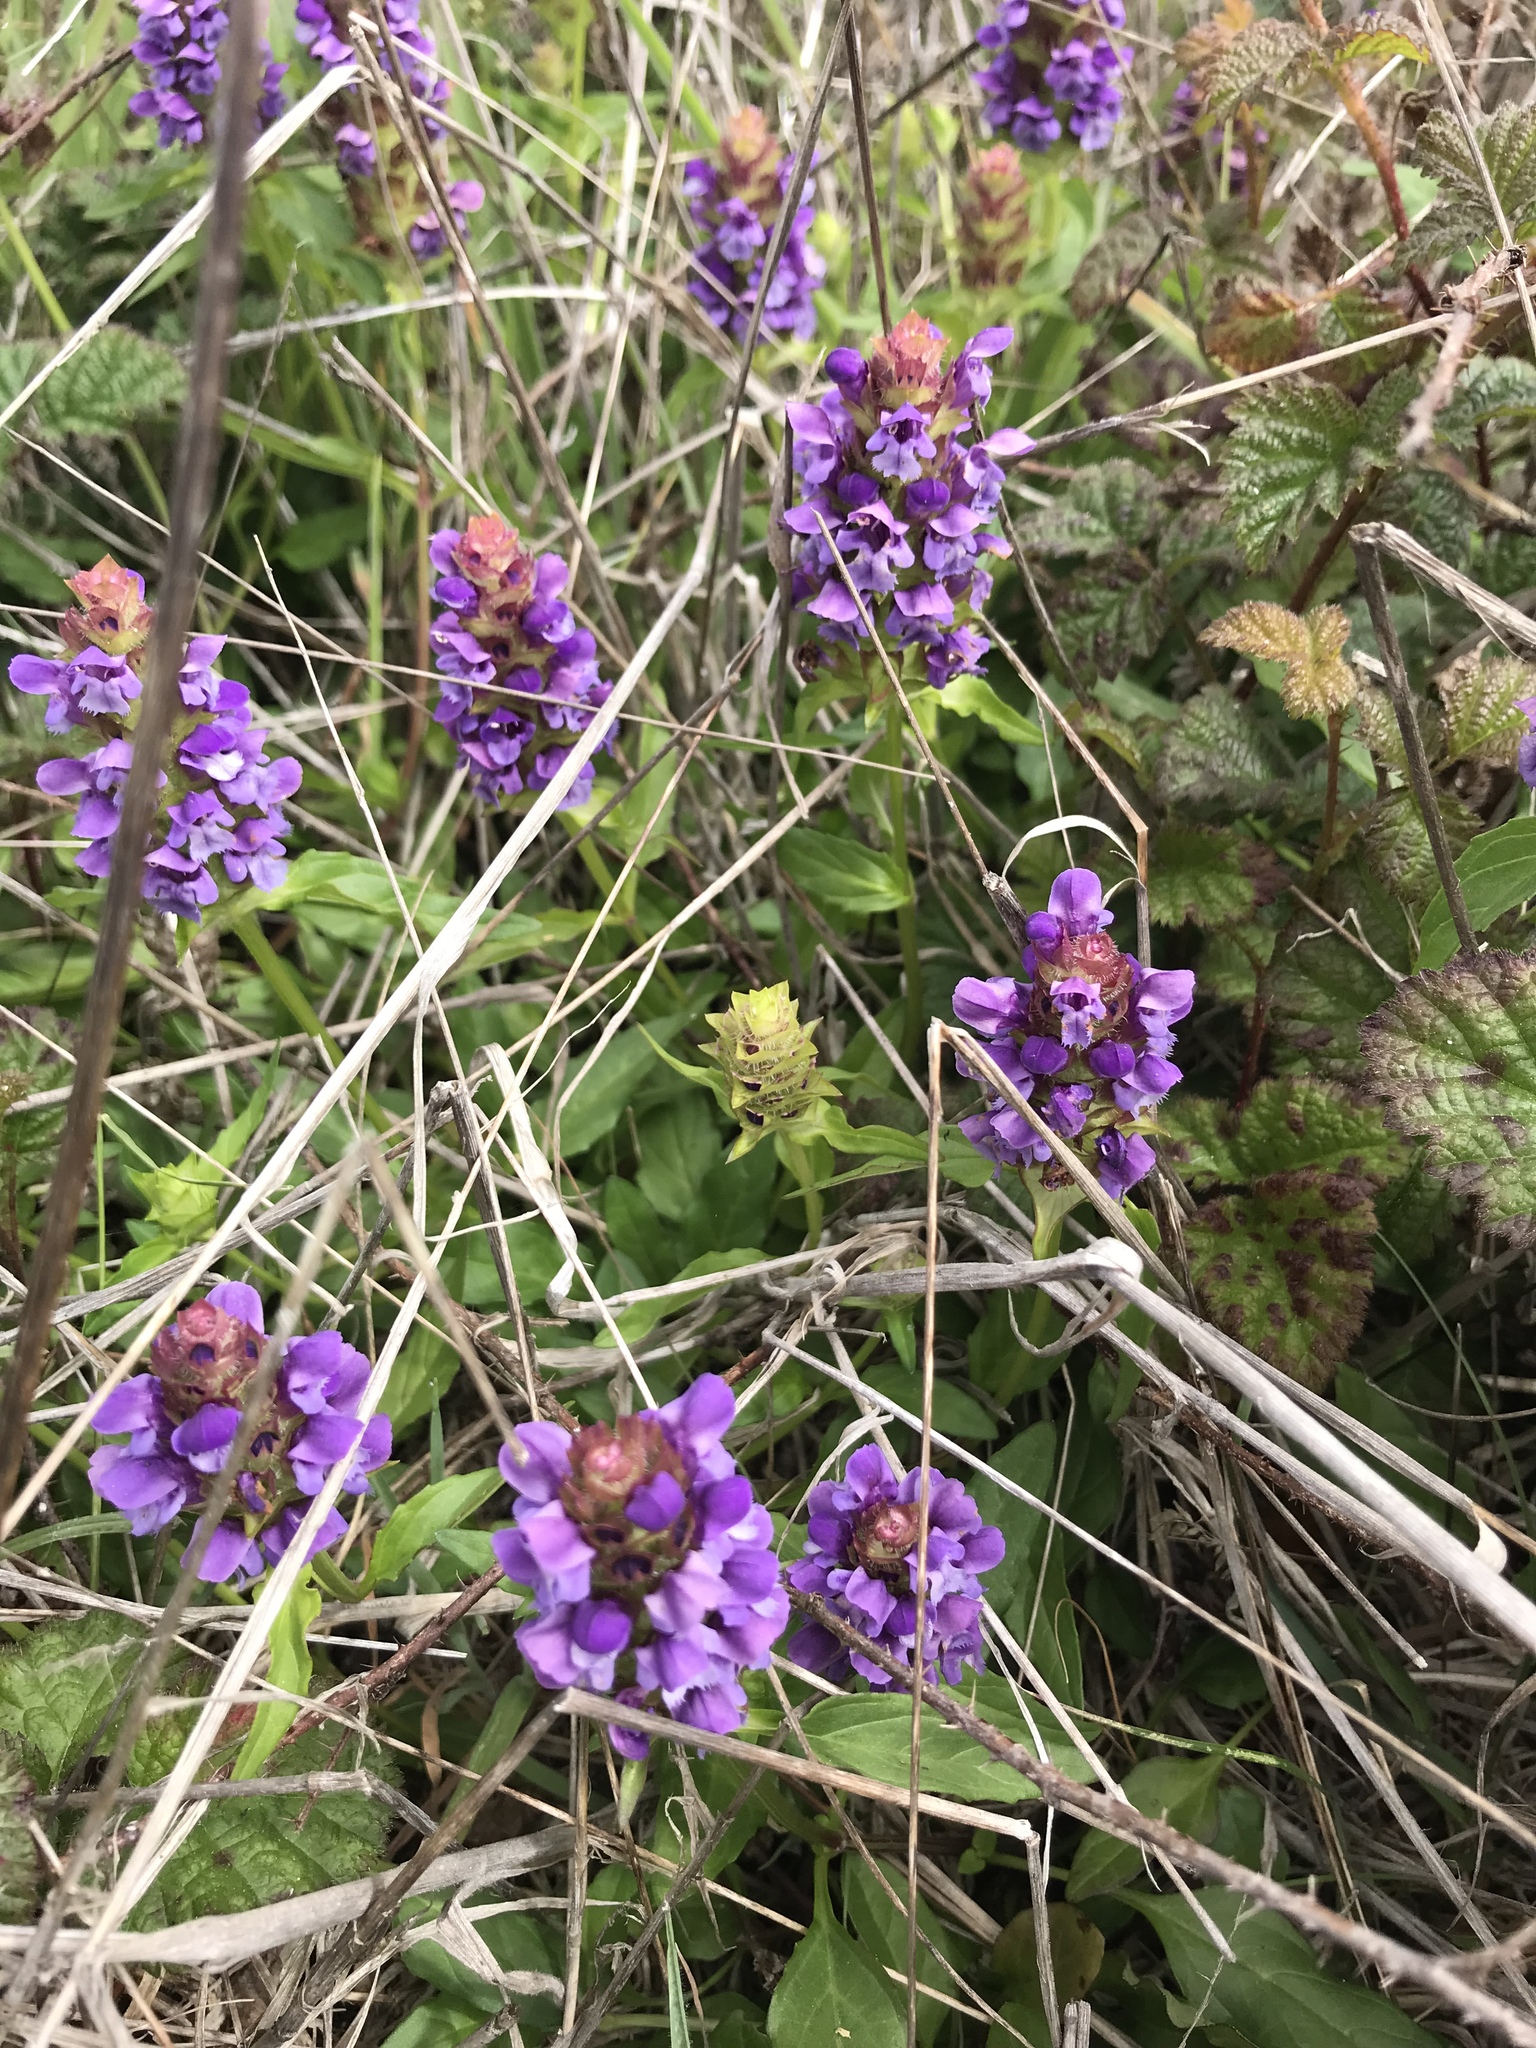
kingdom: Plantae
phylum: Tracheophyta
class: Magnoliopsida
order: Lamiales
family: Lamiaceae
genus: Prunella
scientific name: Prunella vulgaris
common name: Heal-all
